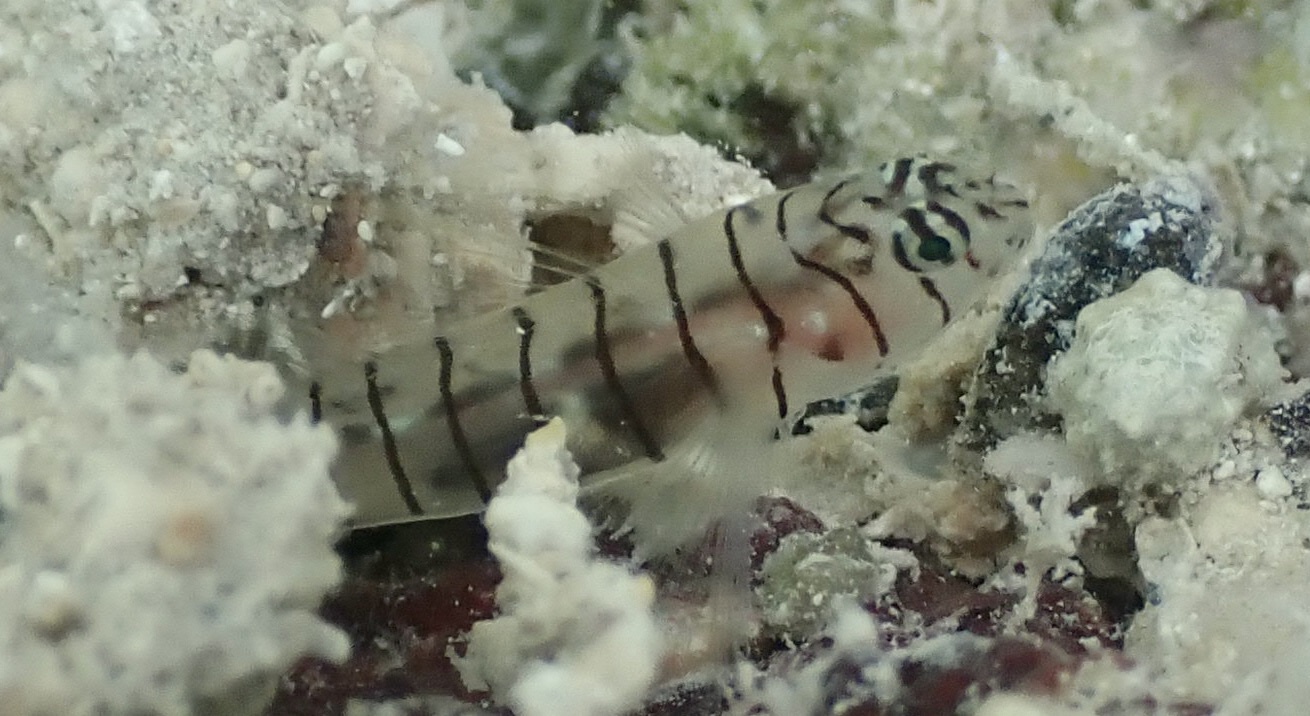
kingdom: Animalia
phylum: Chordata
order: Perciformes
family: Gobiidae
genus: Tigrigobius
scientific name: Tigrigobius macrodon
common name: Tiger goby
